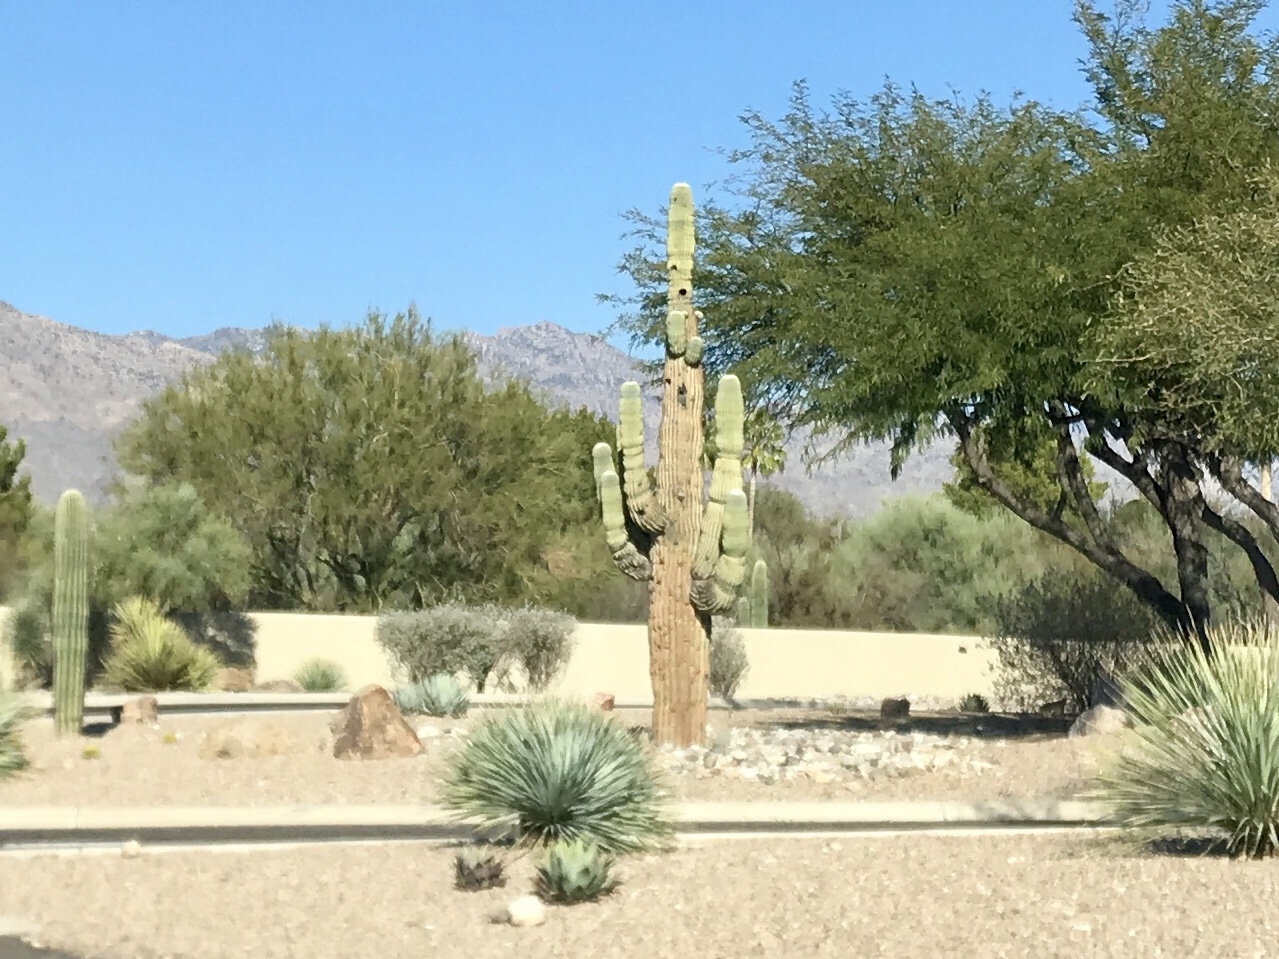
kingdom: Plantae
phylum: Tracheophyta
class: Magnoliopsida
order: Caryophyllales
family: Cactaceae
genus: Carnegiea
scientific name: Carnegiea gigantea
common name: Saguaro
